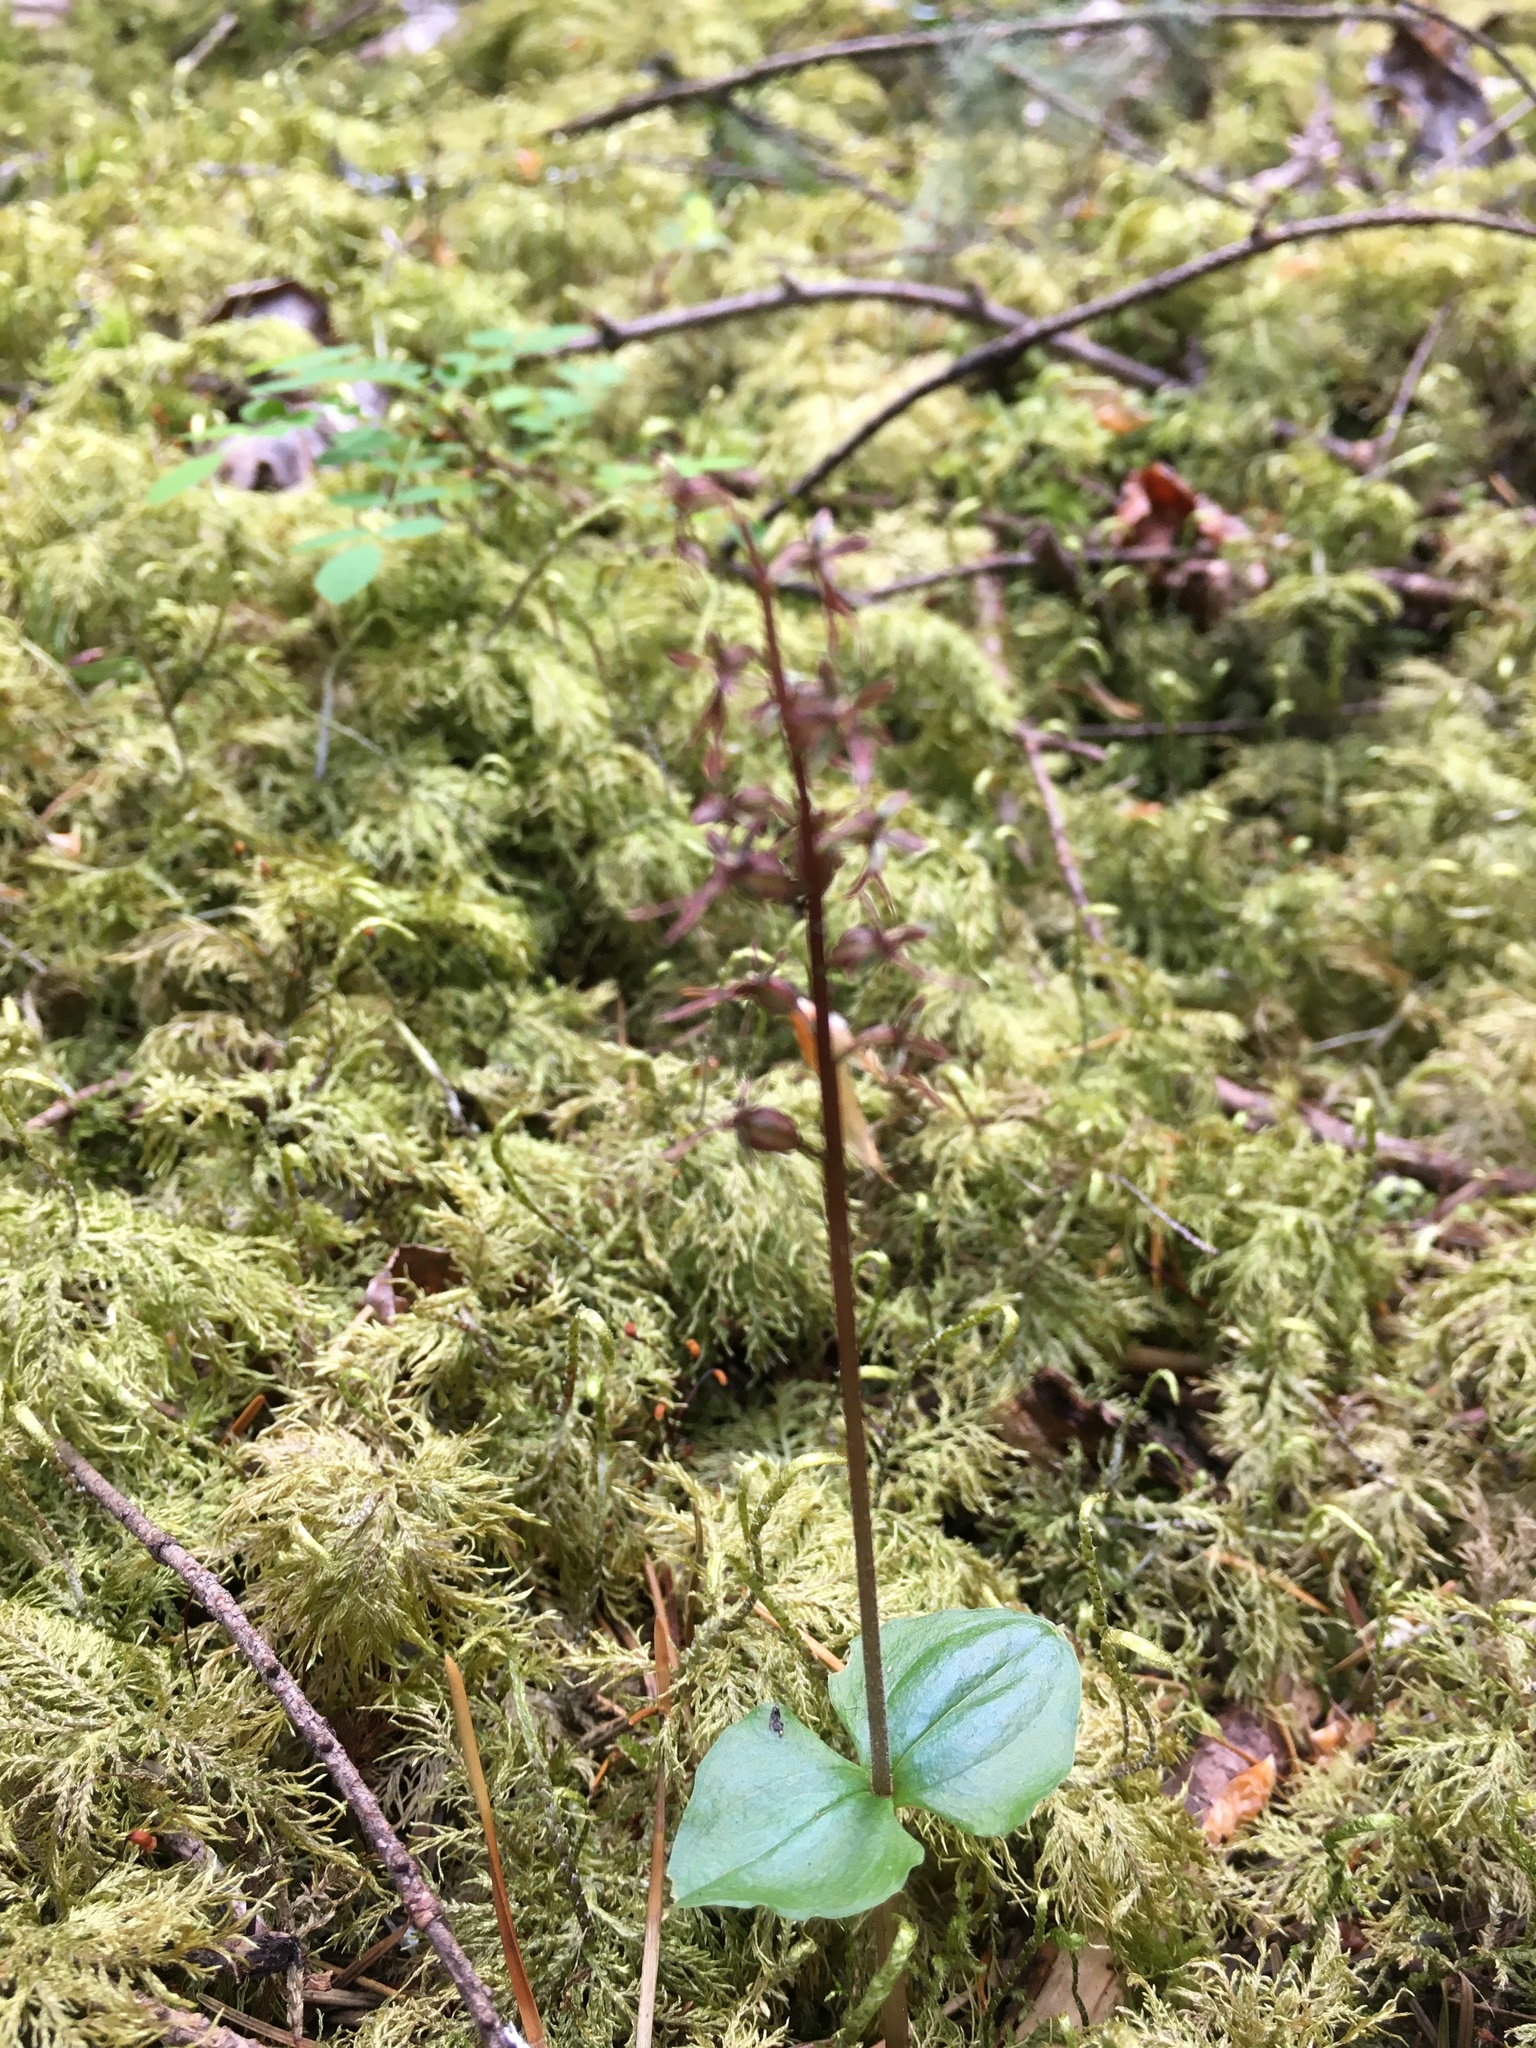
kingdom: Plantae
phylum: Tracheophyta
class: Liliopsida
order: Asparagales
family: Orchidaceae
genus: Neottia
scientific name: Neottia cordata
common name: Lesser twayblade
